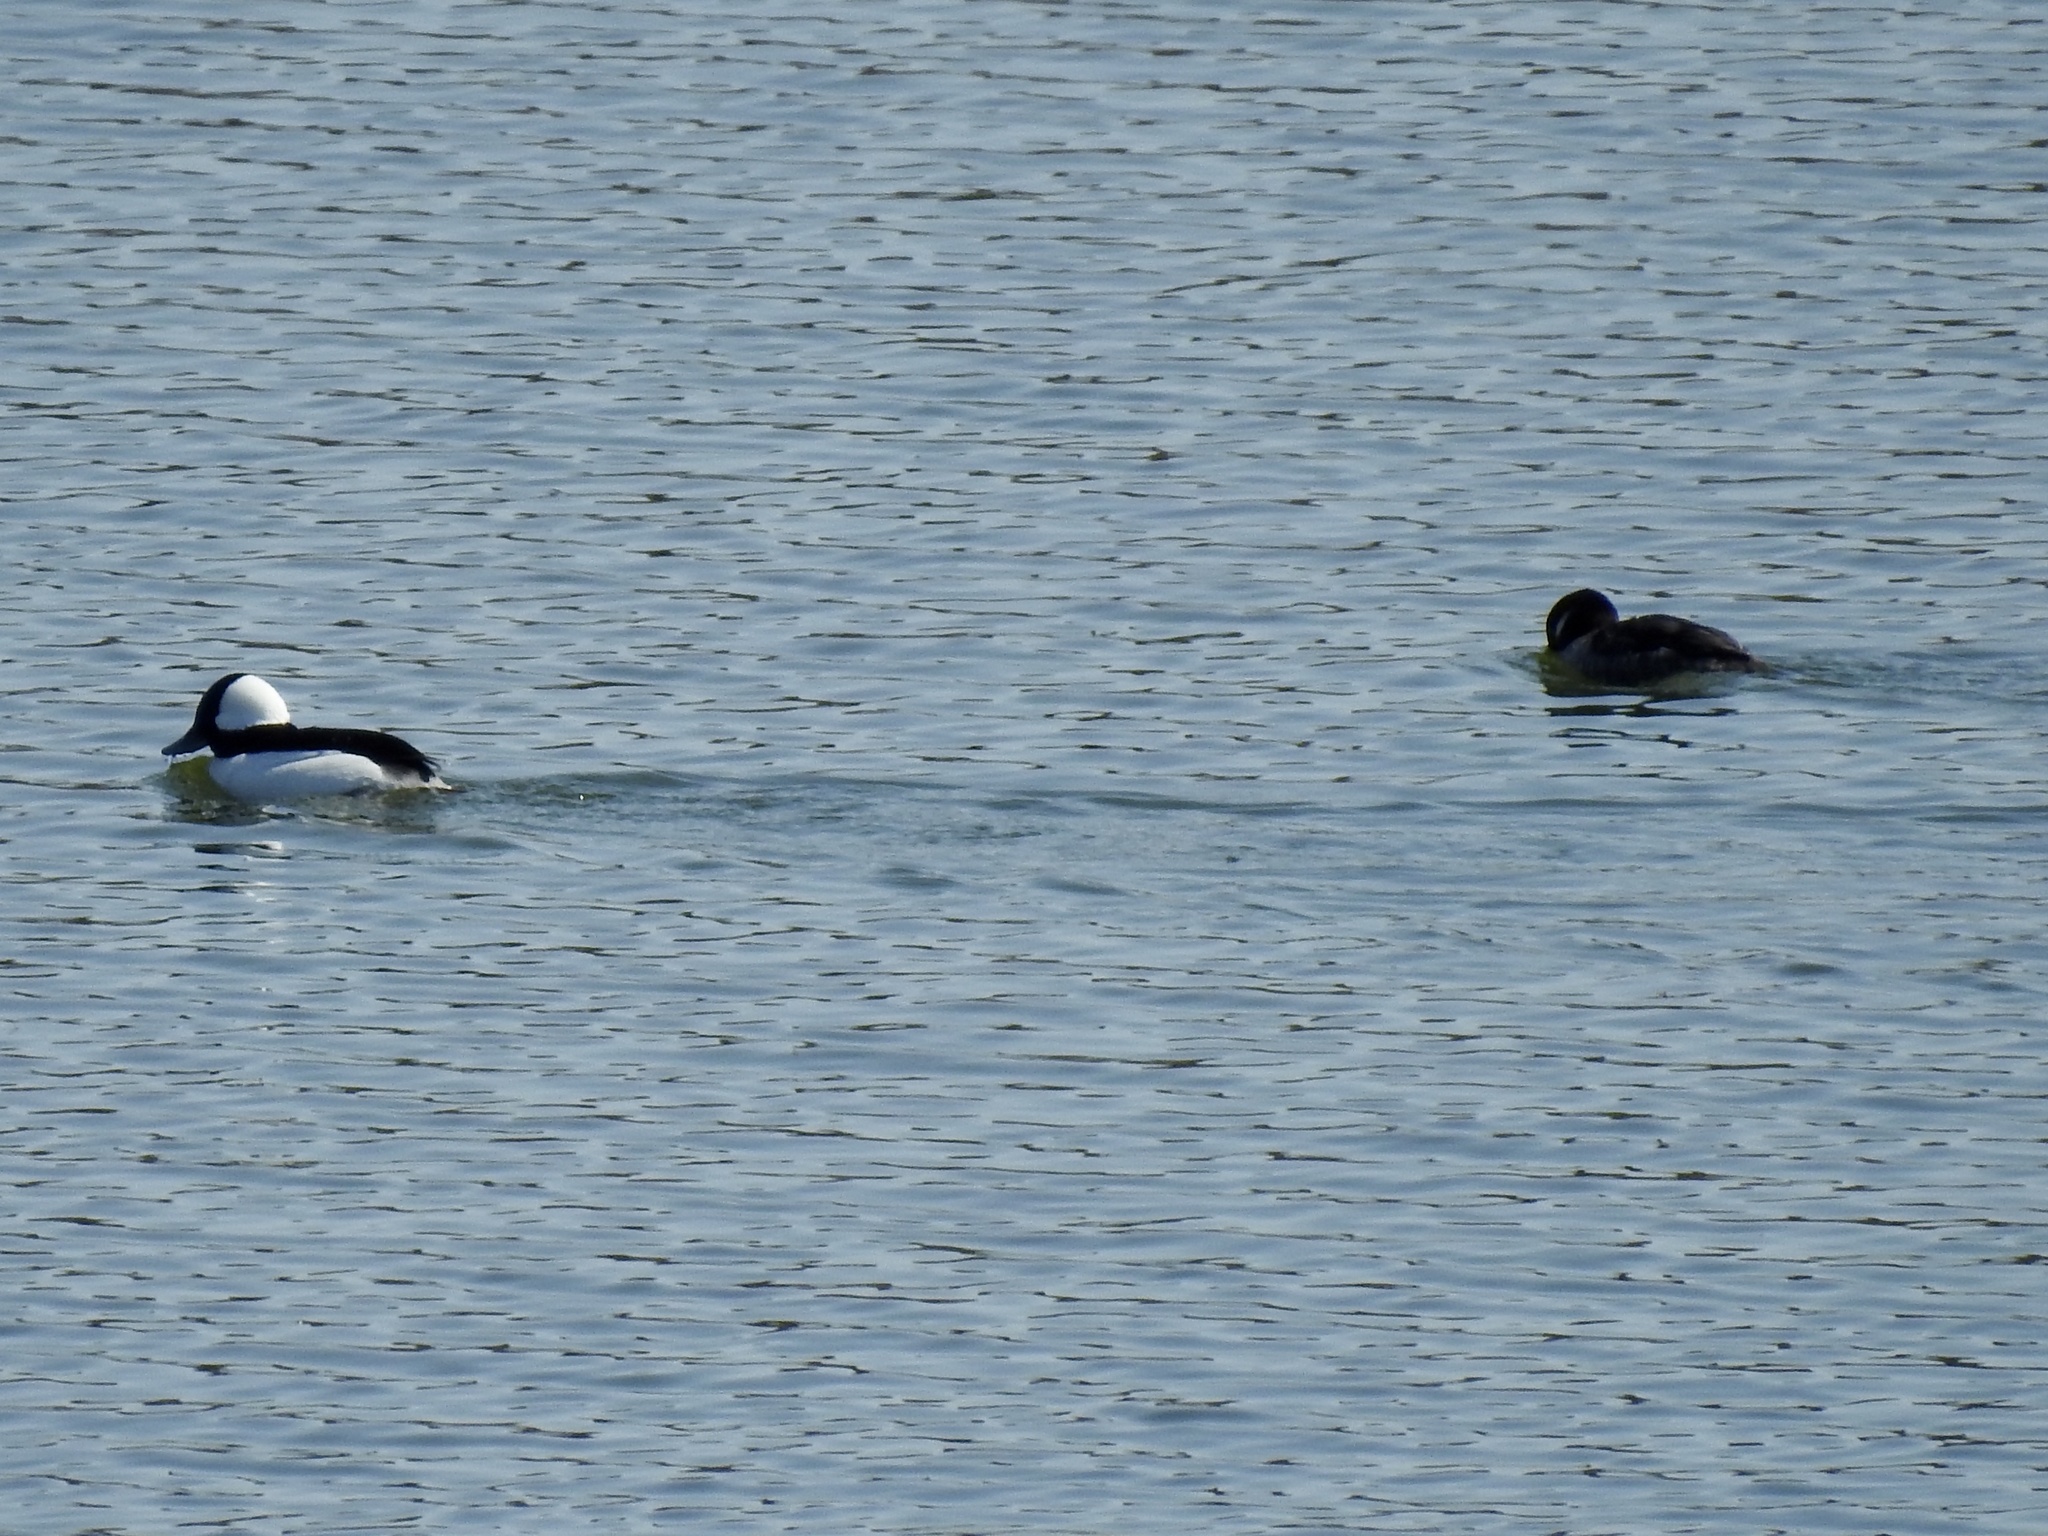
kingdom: Animalia
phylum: Chordata
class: Aves
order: Anseriformes
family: Anatidae
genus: Bucephala
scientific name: Bucephala albeola
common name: Bufflehead
